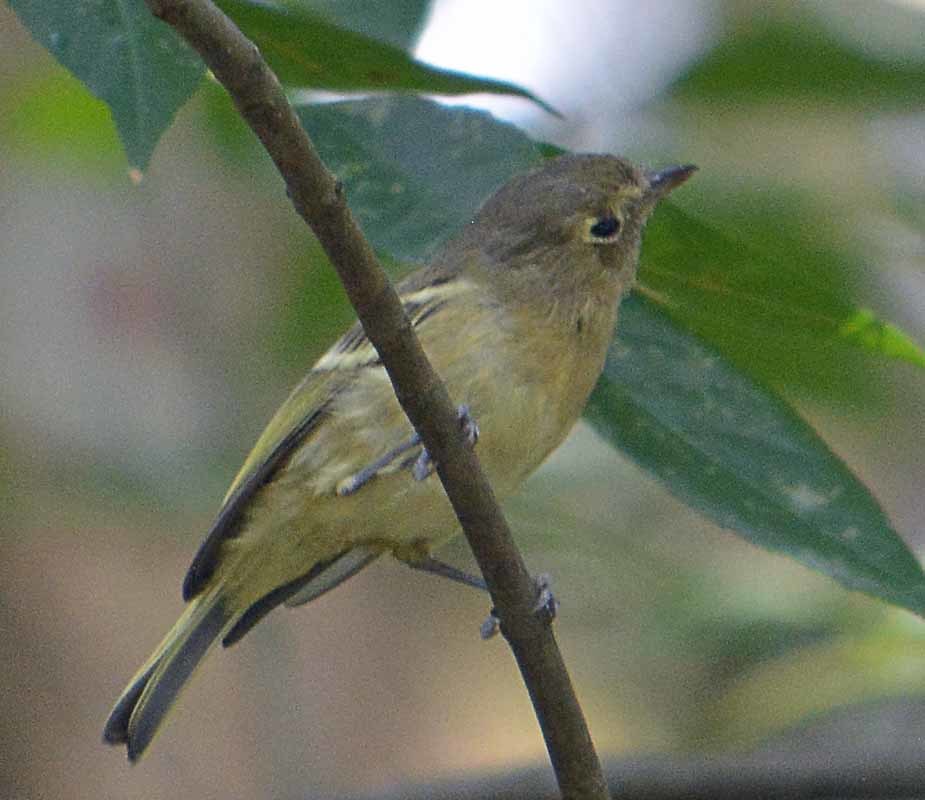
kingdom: Animalia
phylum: Chordata
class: Aves
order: Passeriformes
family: Vireonidae
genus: Vireo
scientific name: Vireo huttoni
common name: Hutton's vireo
